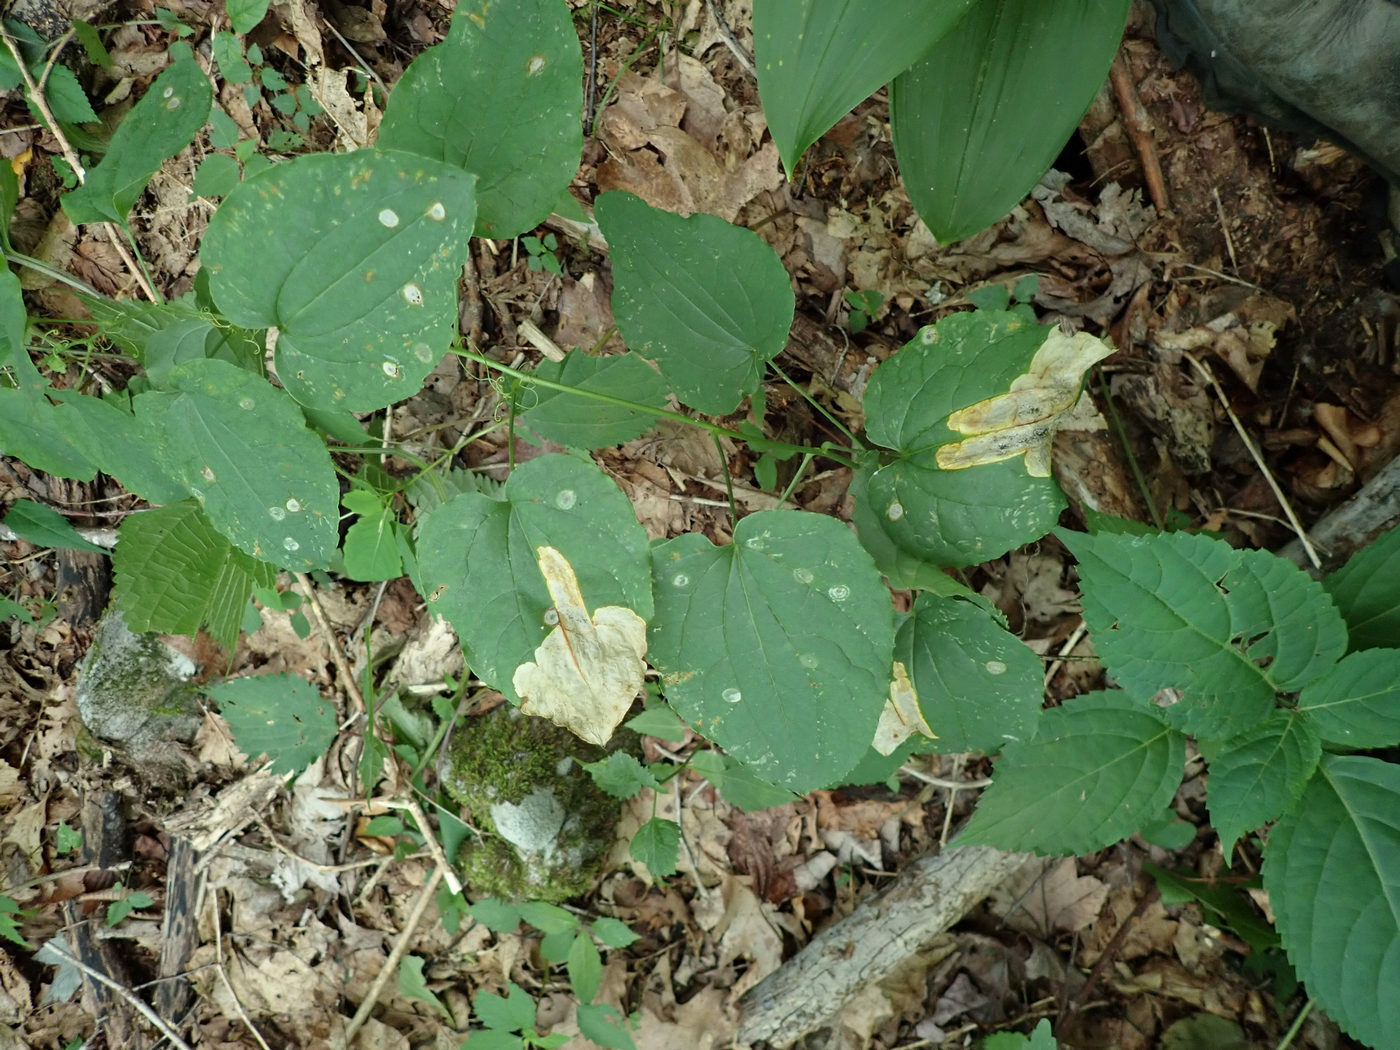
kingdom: Animalia
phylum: Arthropoda
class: Insecta
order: Lepidoptera
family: Lyonetiidae
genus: Leucoptera
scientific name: Leucoptera
